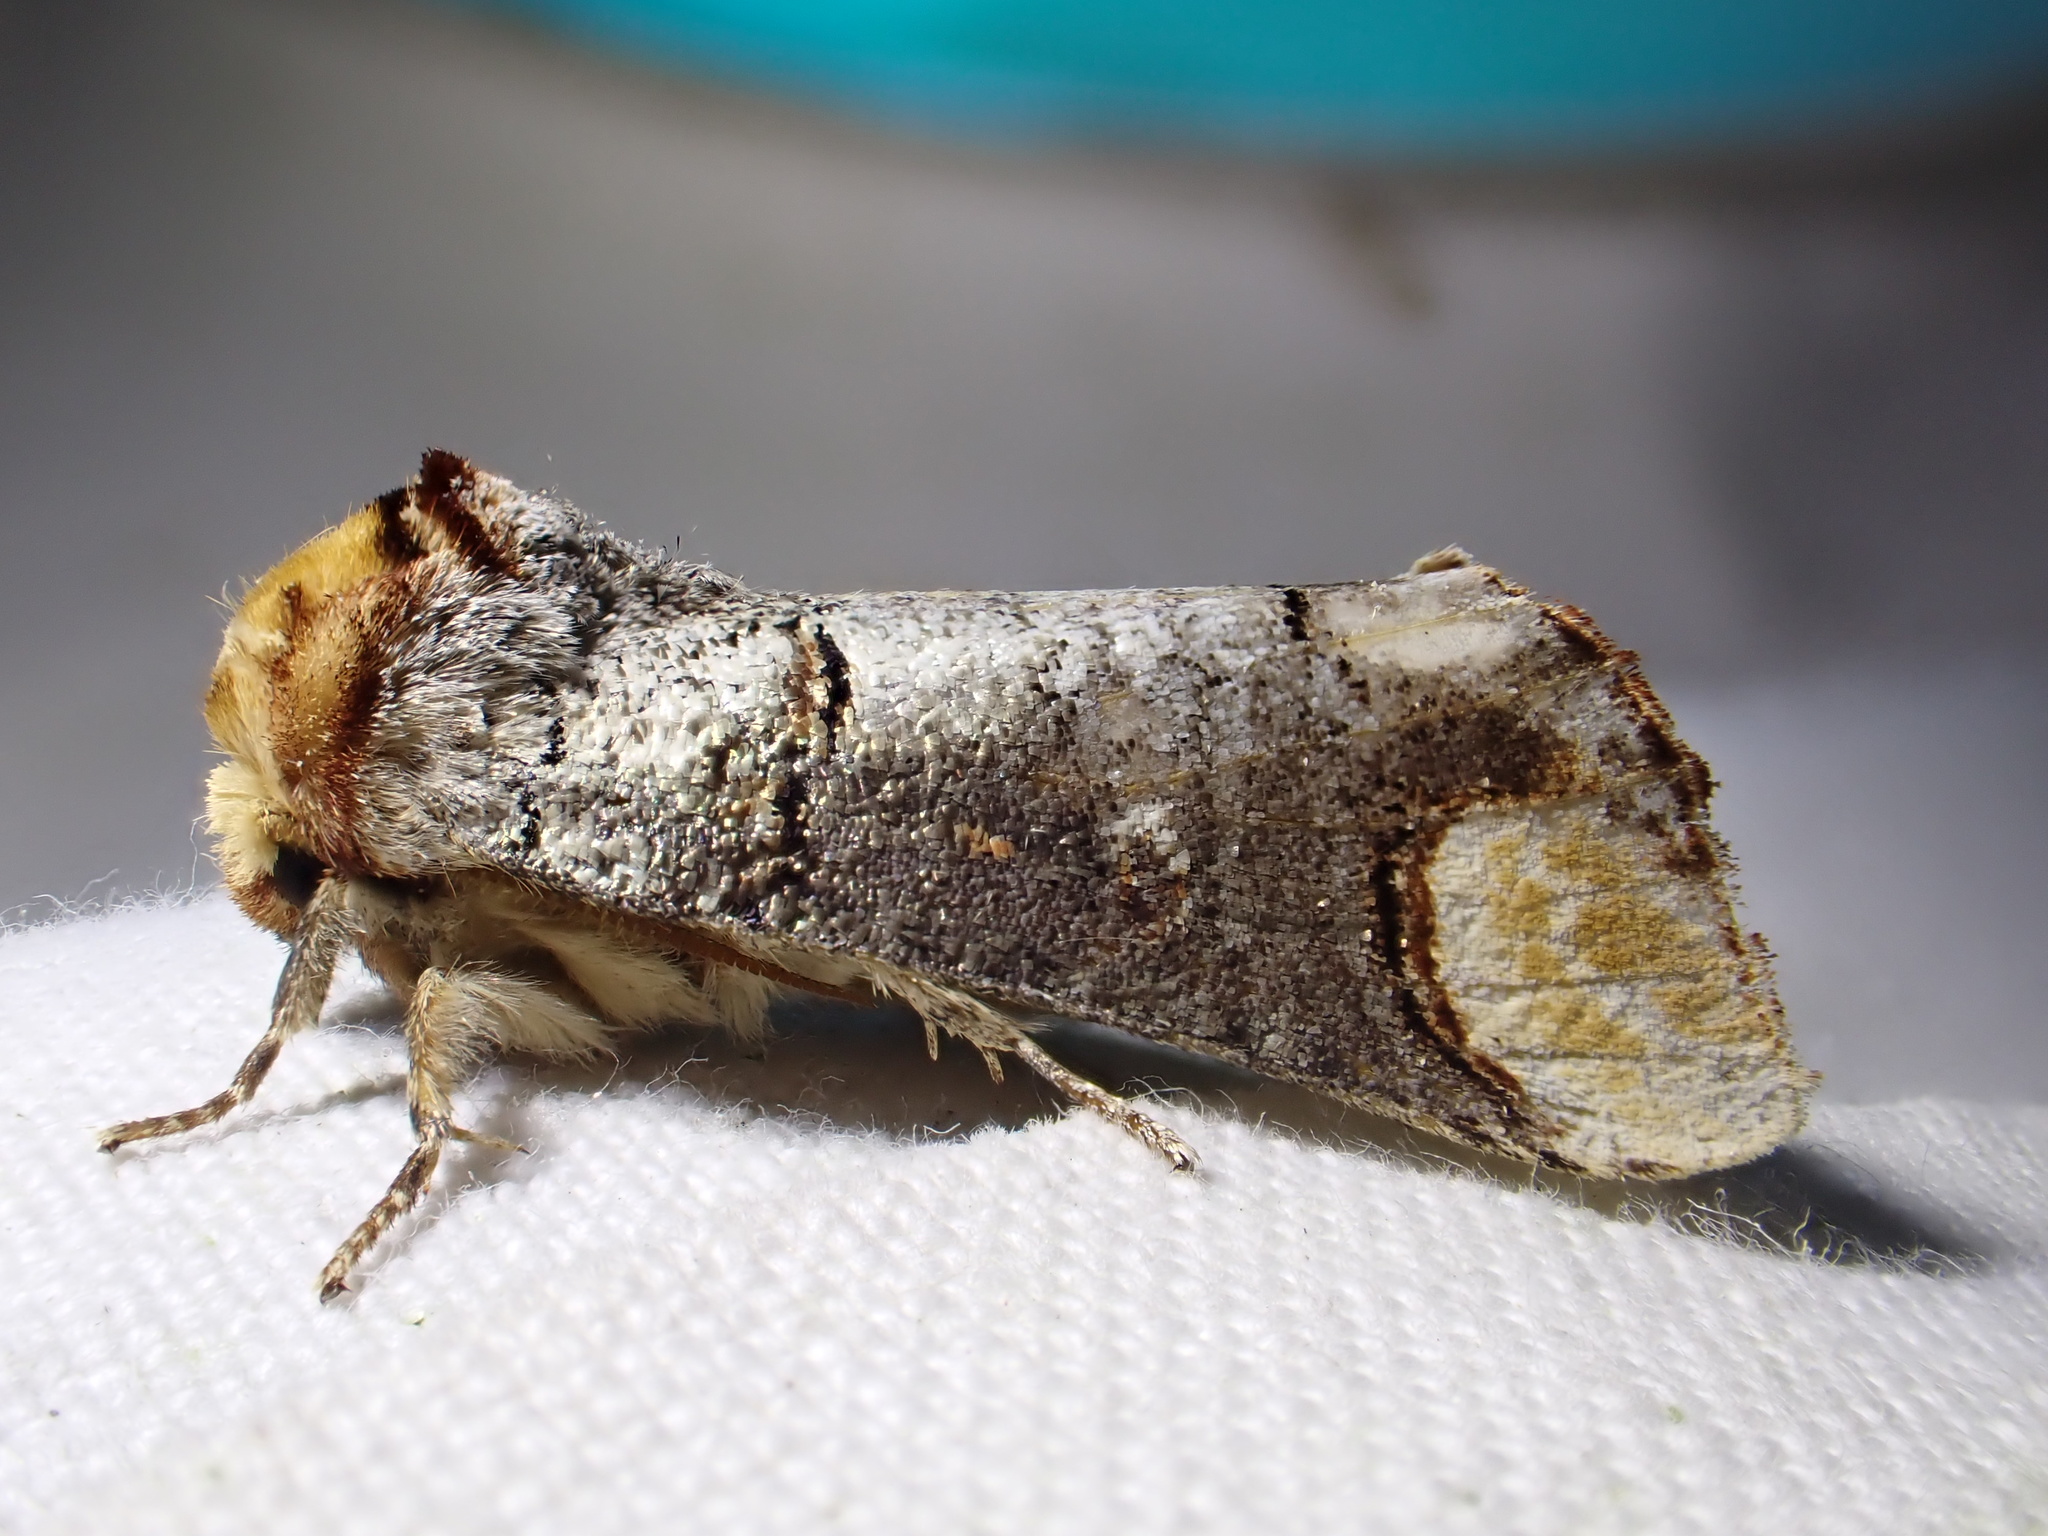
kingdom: Animalia
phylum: Arthropoda
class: Insecta
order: Lepidoptera
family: Notodontidae
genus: Phalera
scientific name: Phalera bucephala
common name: Buff-tip
